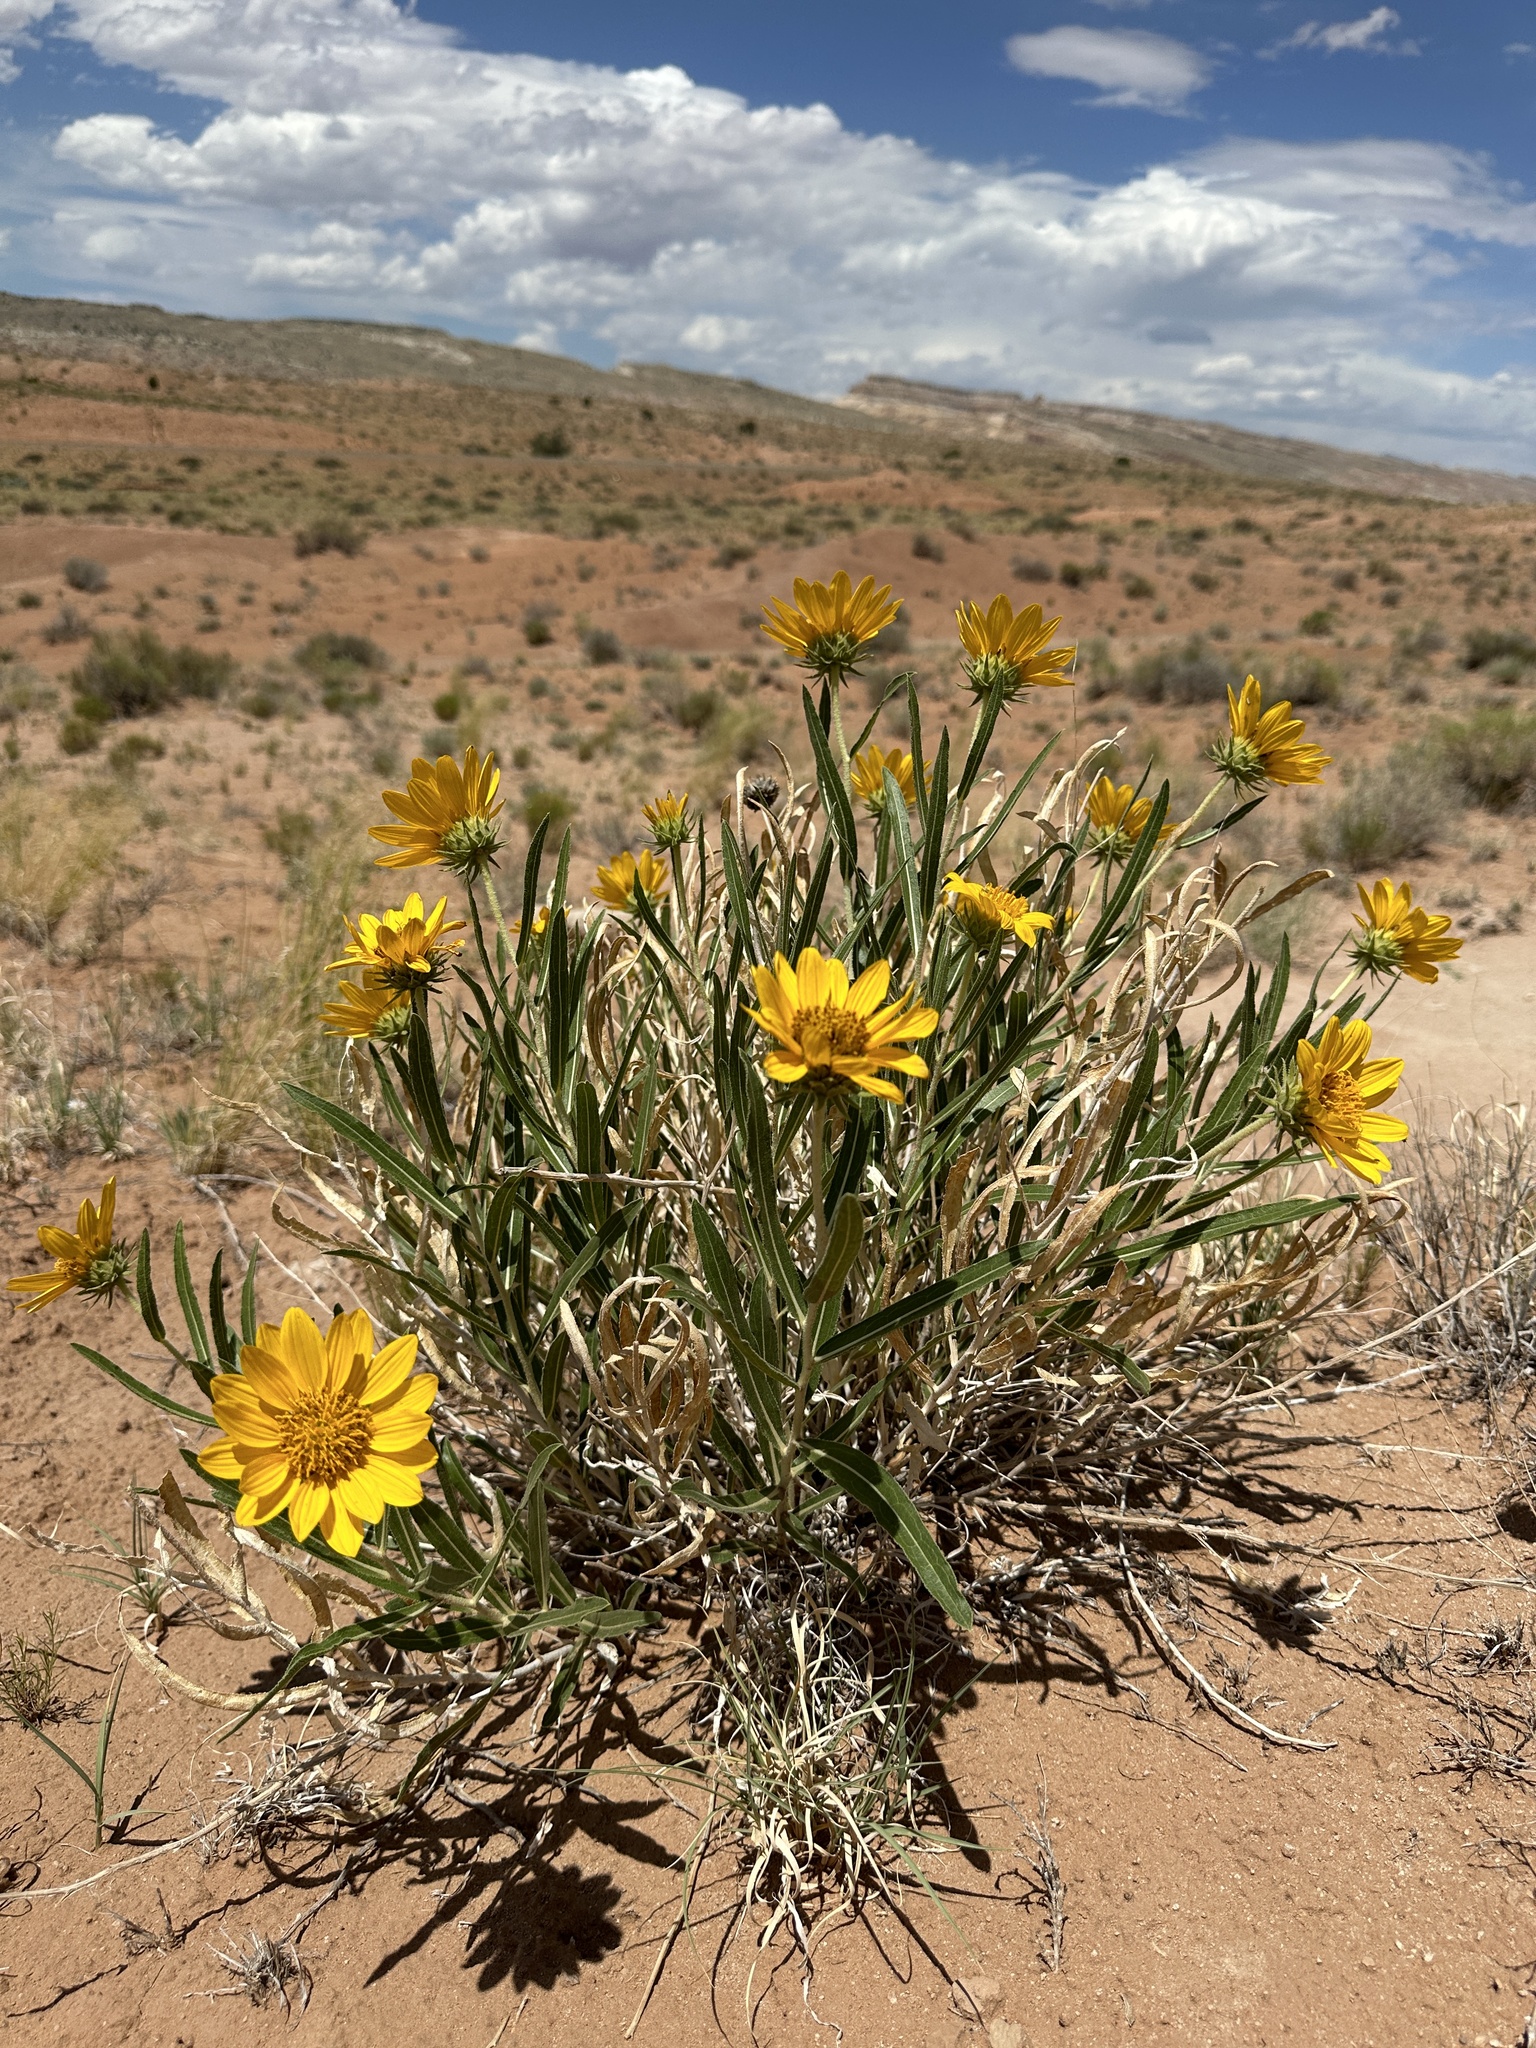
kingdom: Plantae
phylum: Tracheophyta
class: Magnoliopsida
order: Asterales
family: Asteraceae
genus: Scabrethia
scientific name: Scabrethia scabra
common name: Rough mules's-ears
